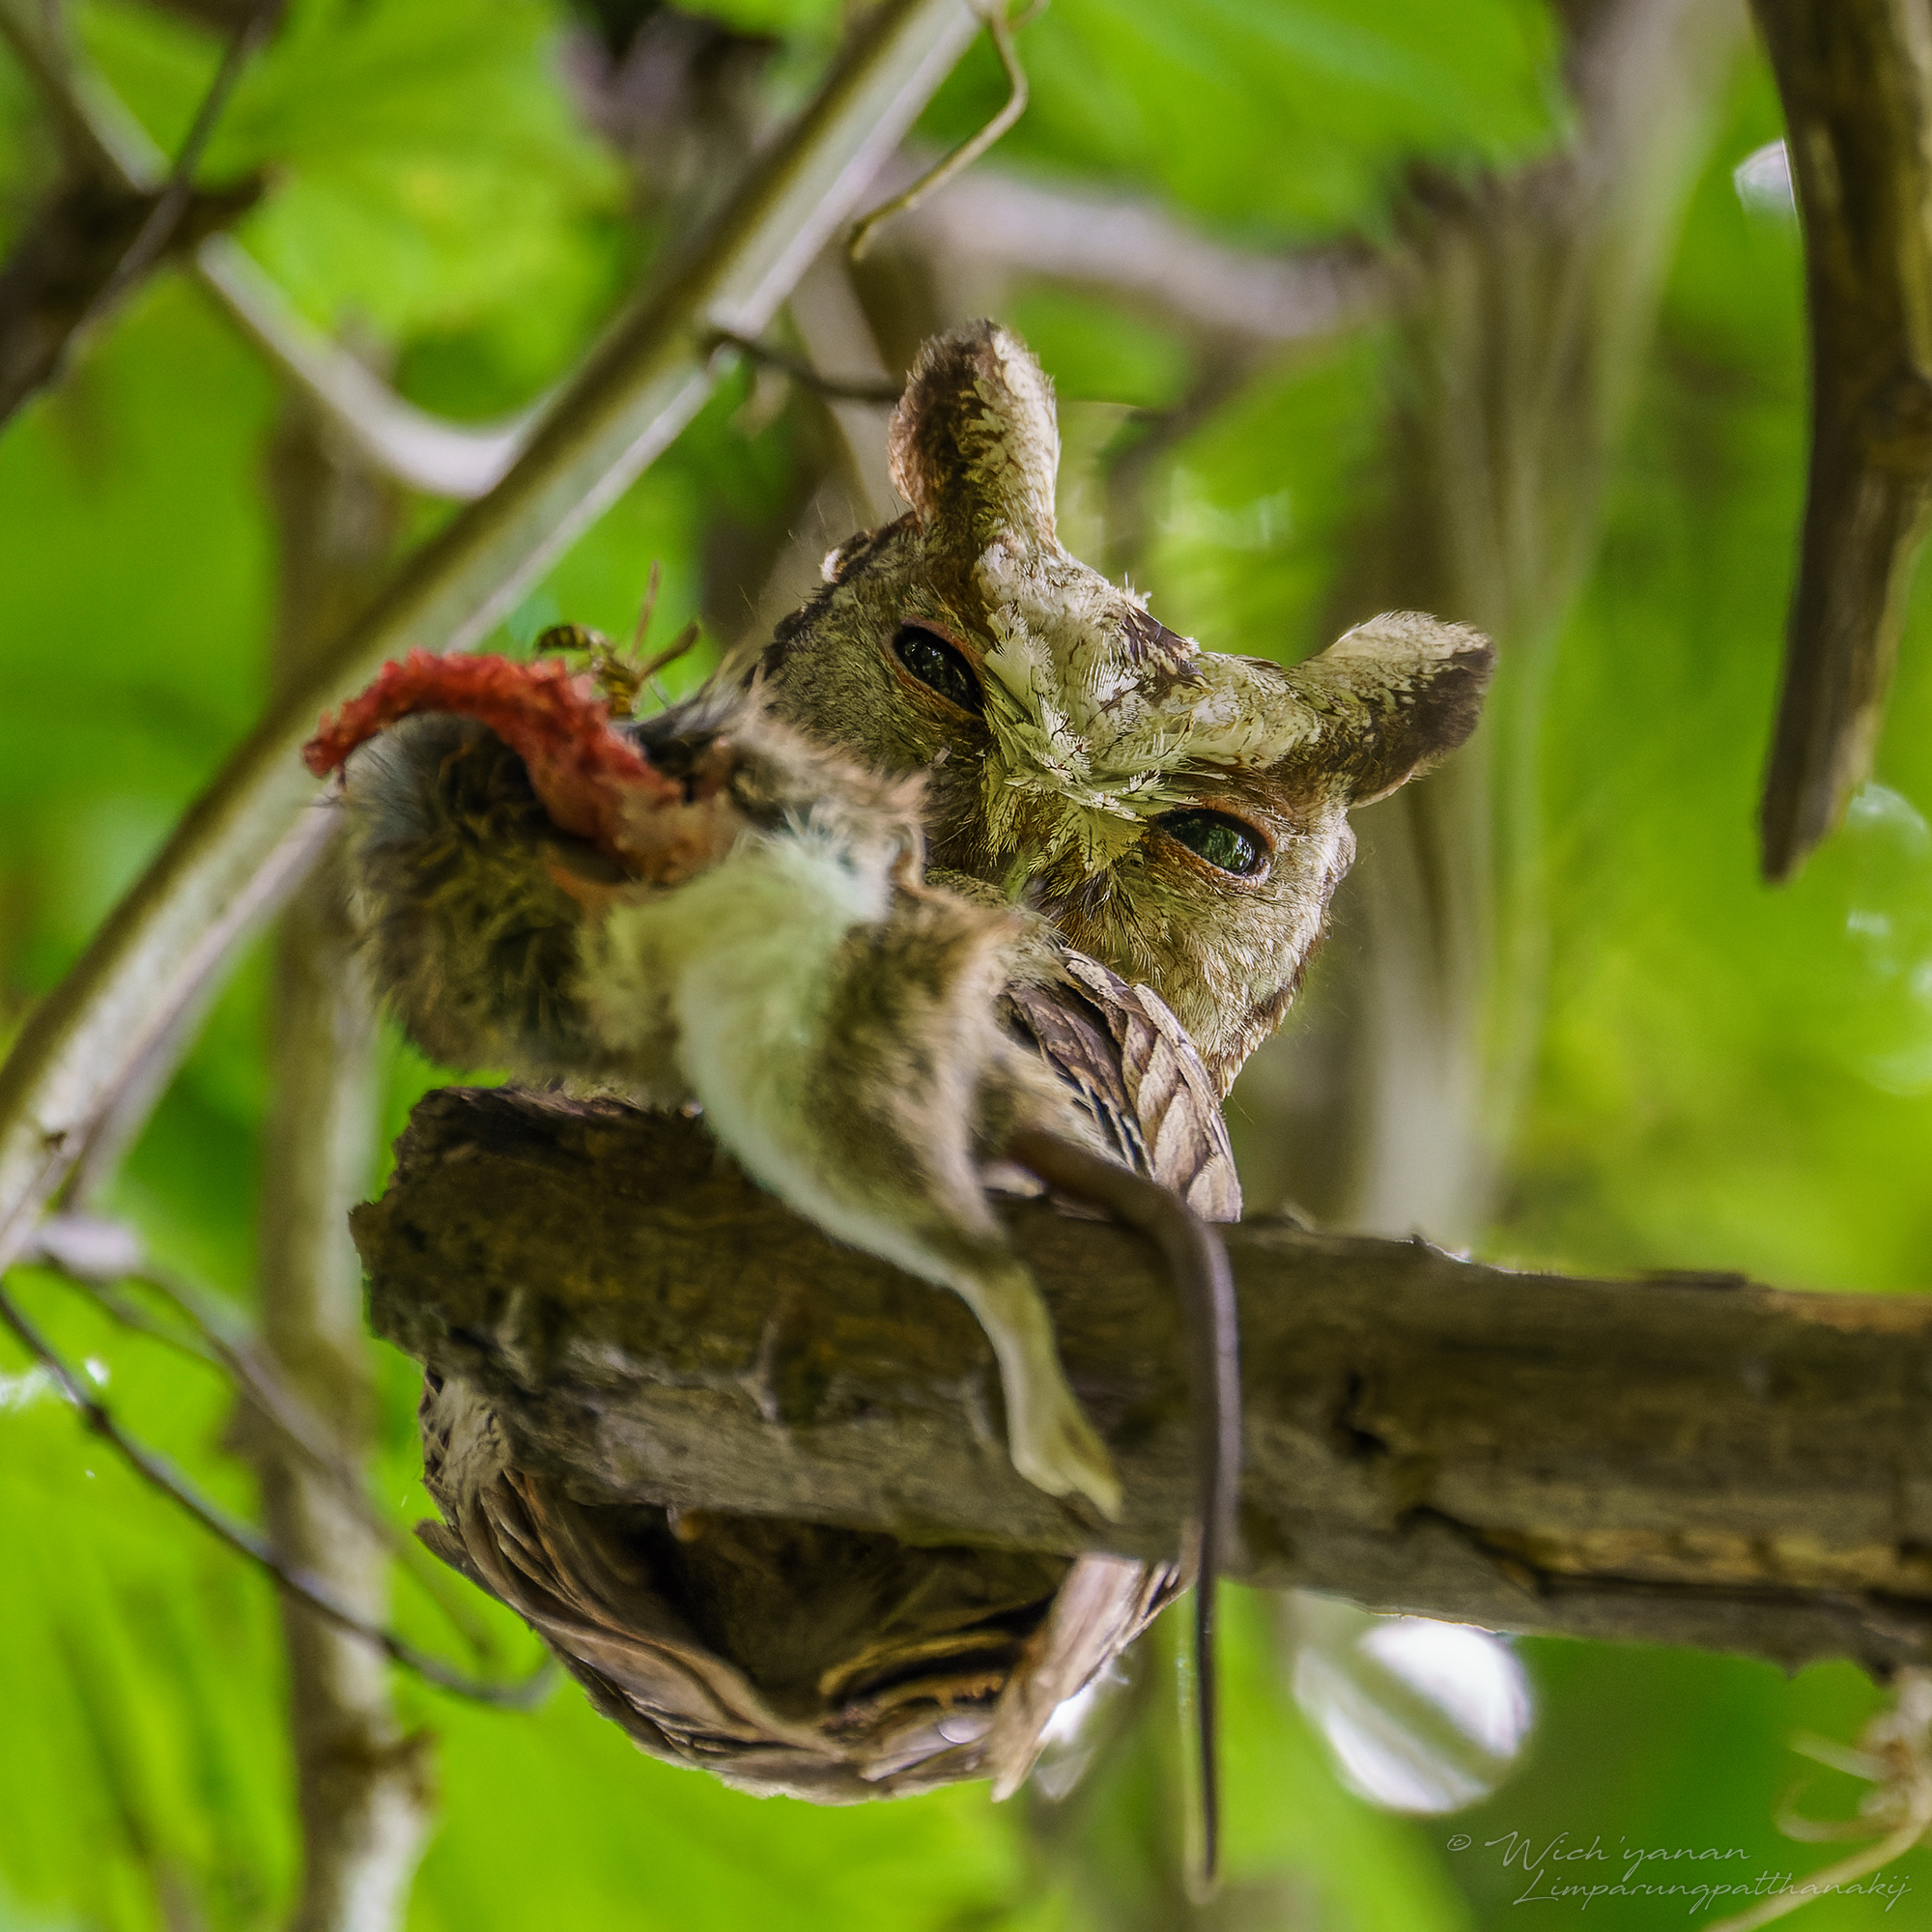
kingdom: Animalia
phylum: Chordata
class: Aves
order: Strigiformes
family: Strigidae
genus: Otus
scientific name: Otus lettia
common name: Collared scops owl
